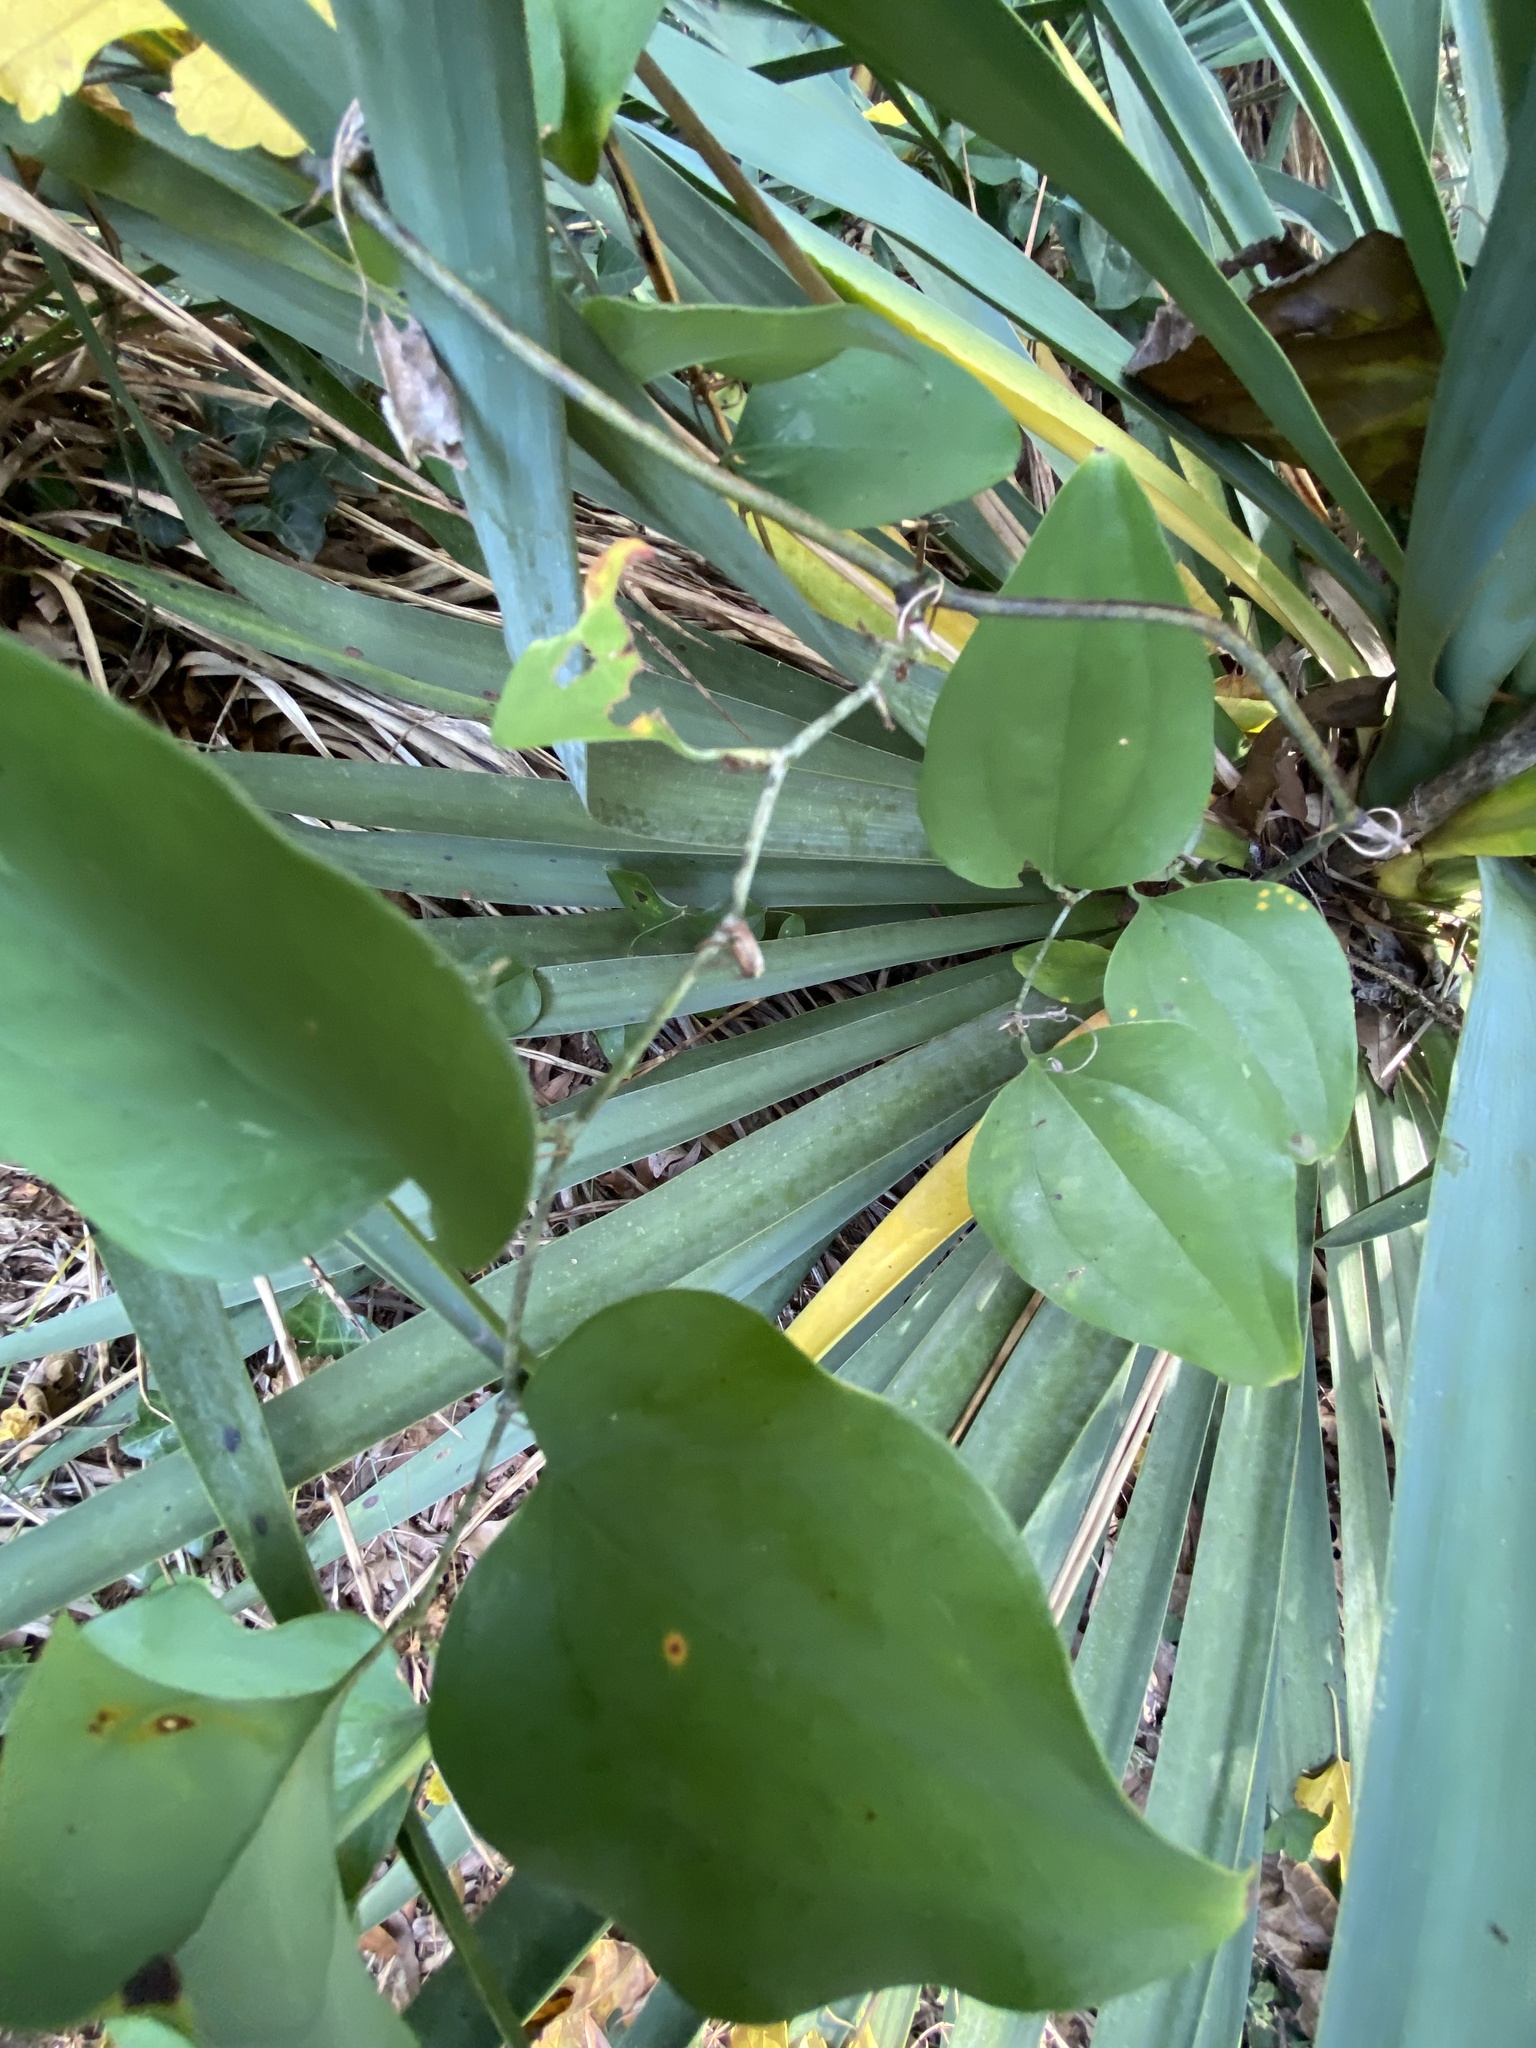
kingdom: Plantae
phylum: Tracheophyta
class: Liliopsida
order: Liliales
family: Smilacaceae
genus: Smilax
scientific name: Smilax glauca
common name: Cat greenbrier
